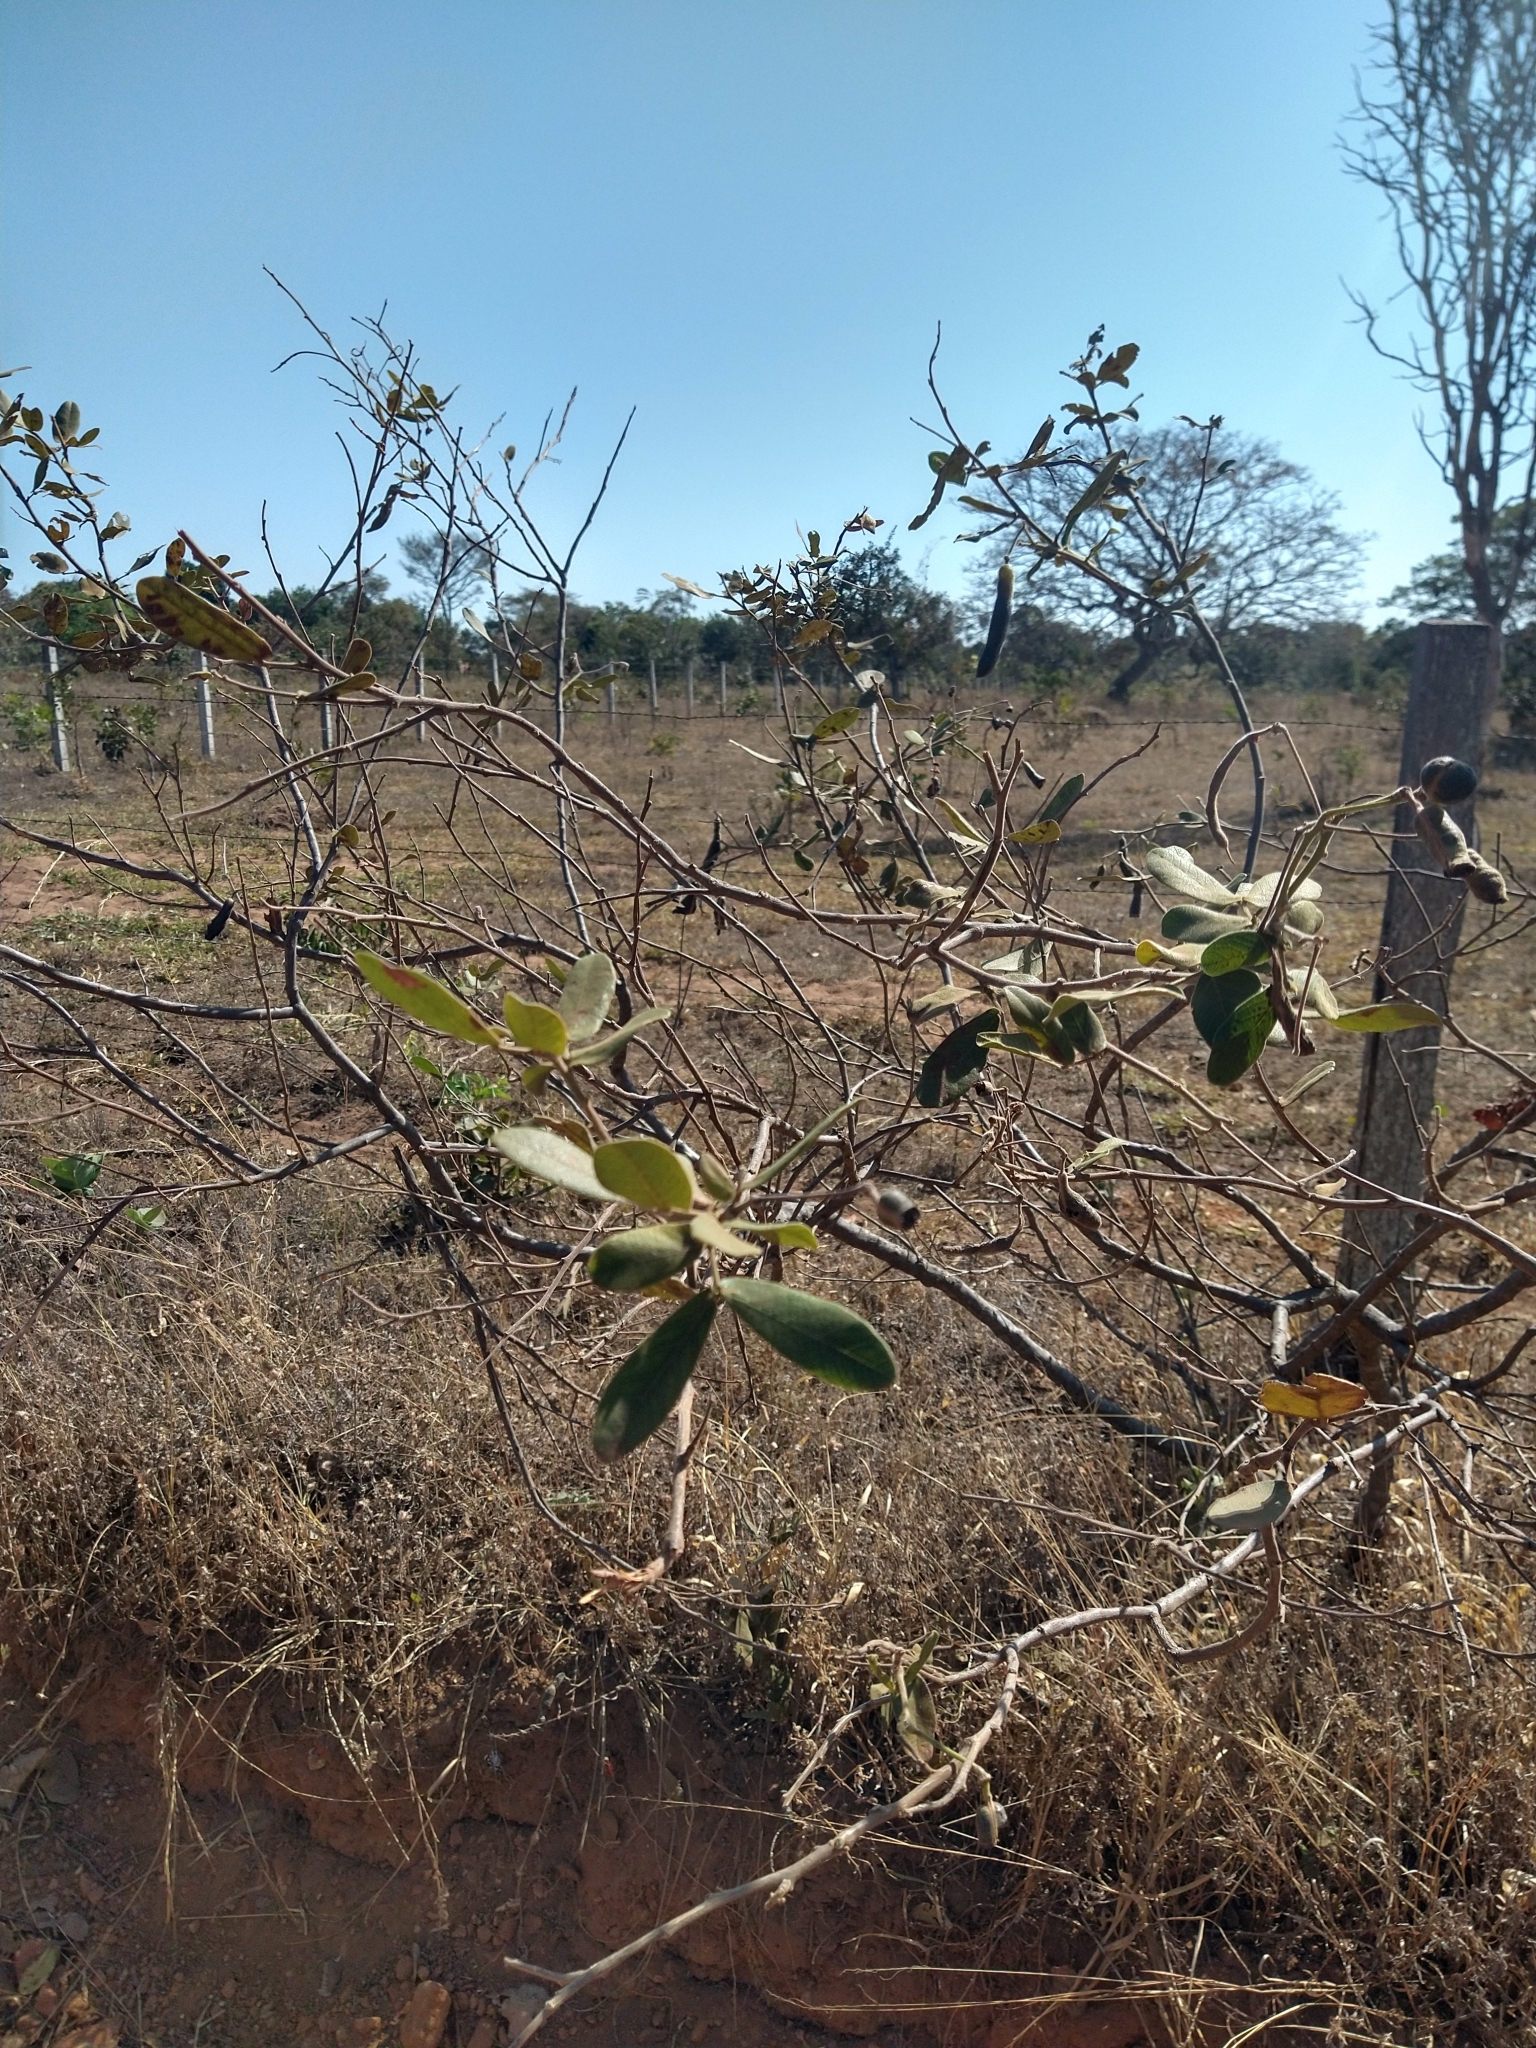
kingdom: Plantae
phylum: Tracheophyta
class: Magnoliopsida
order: Fabales
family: Fabaceae
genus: Senna
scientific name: Senna rugosa
